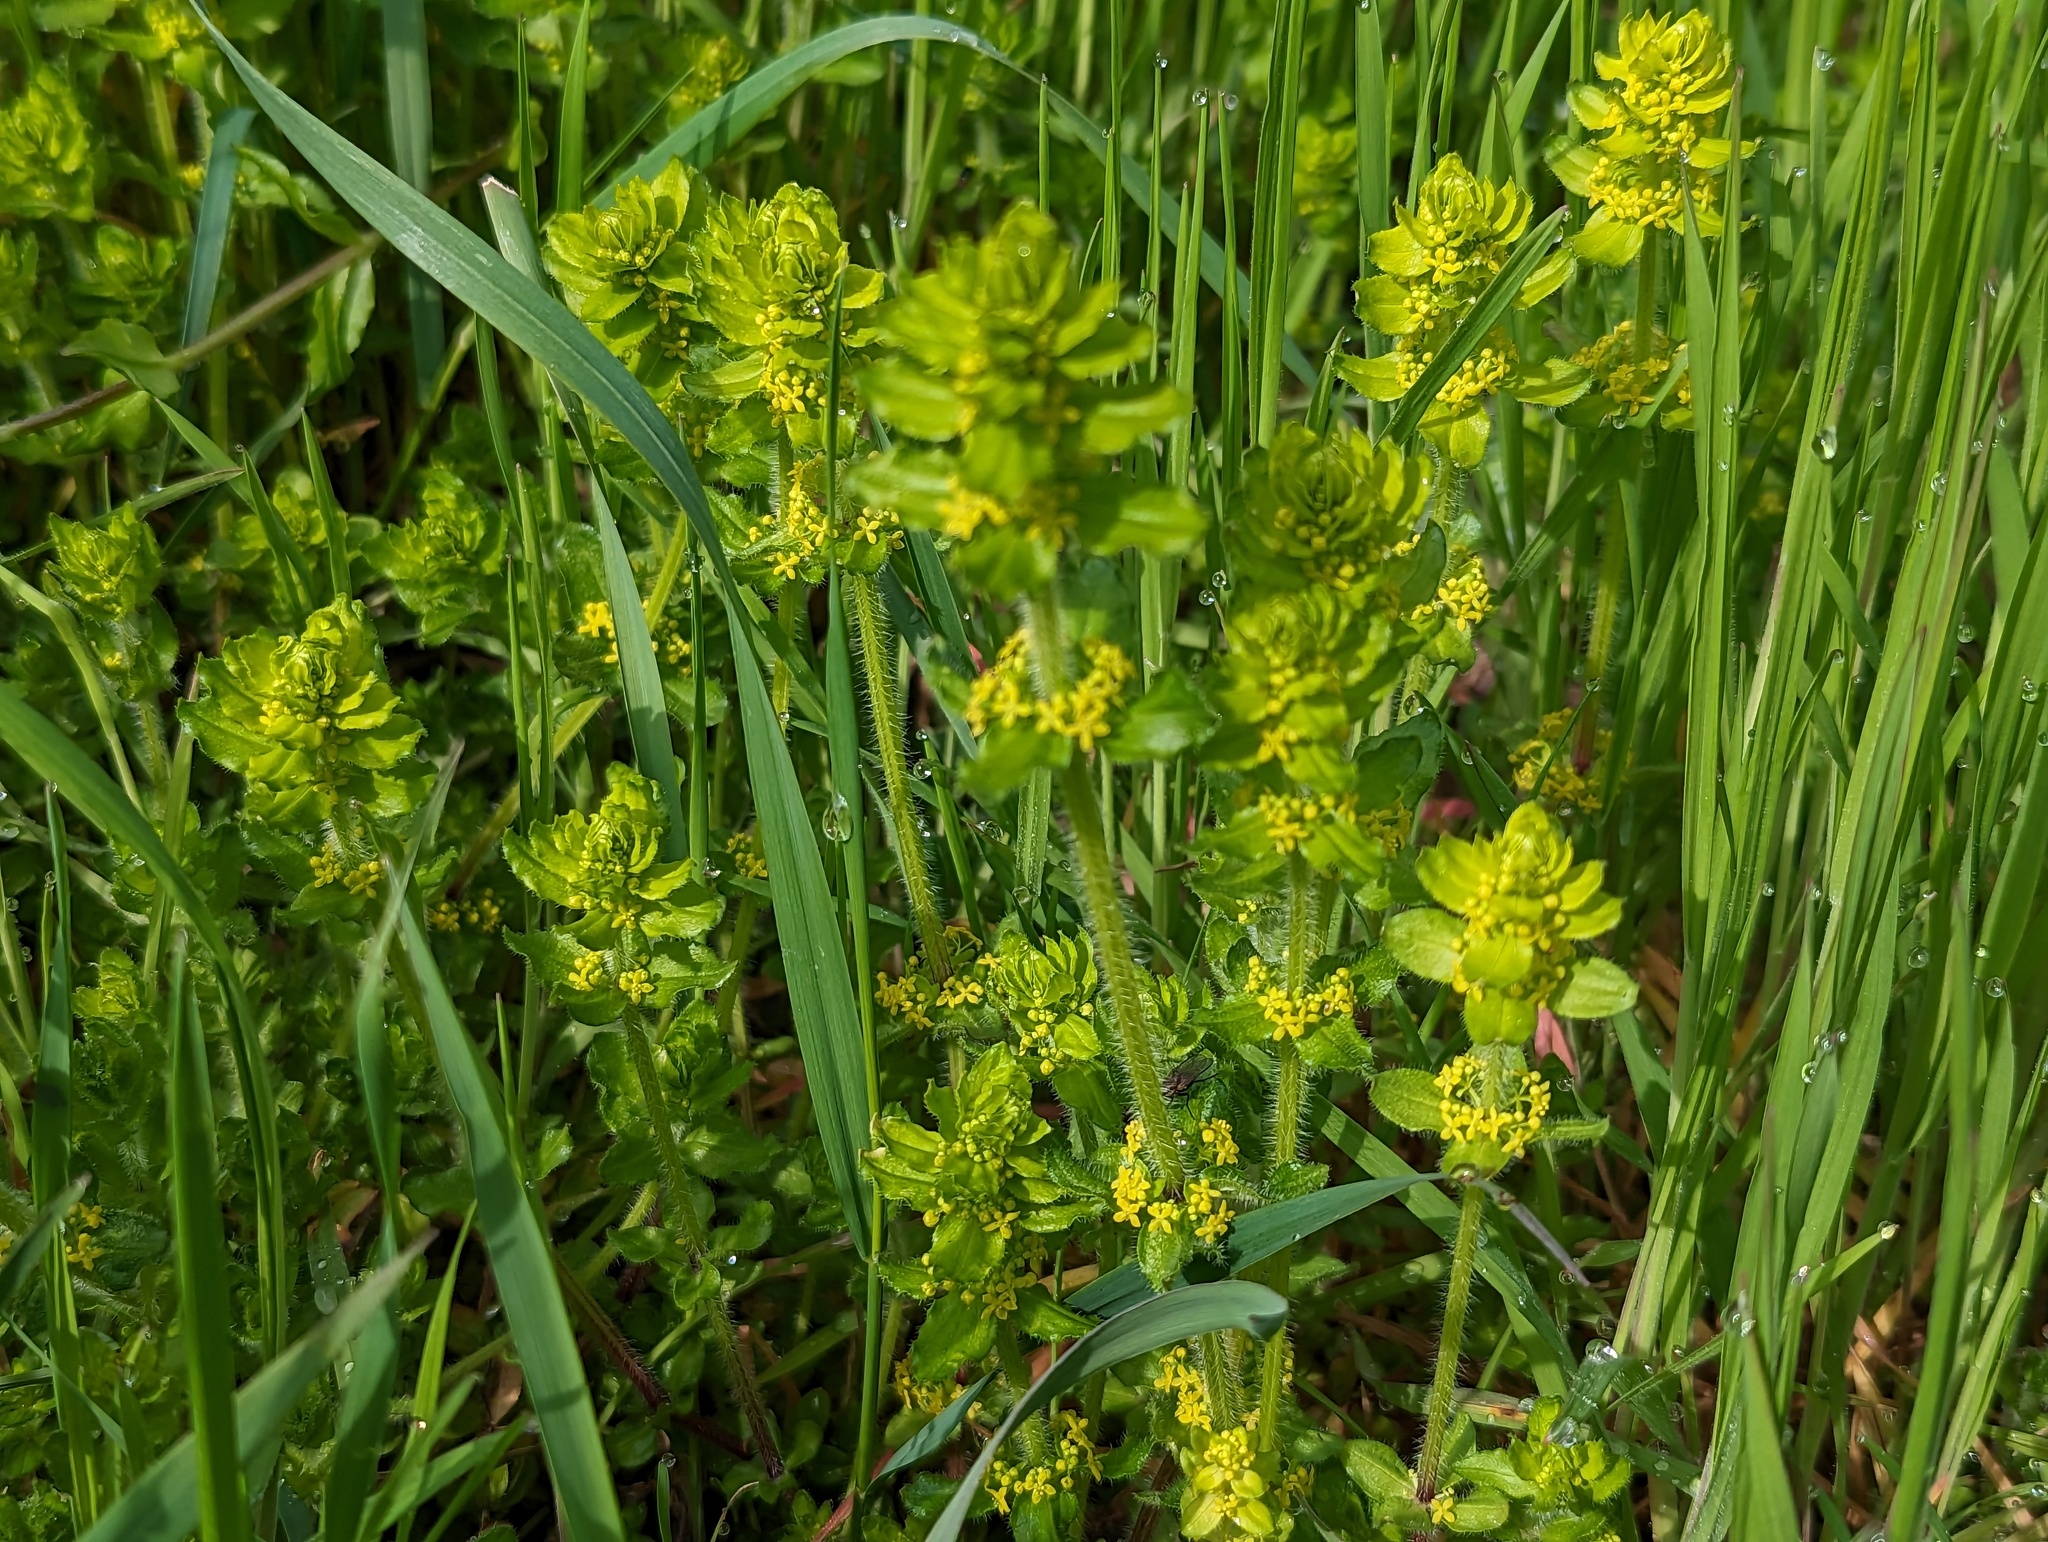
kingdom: Plantae
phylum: Tracheophyta
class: Magnoliopsida
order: Gentianales
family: Rubiaceae
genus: Cruciata
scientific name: Cruciata laevipes
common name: Crosswort
